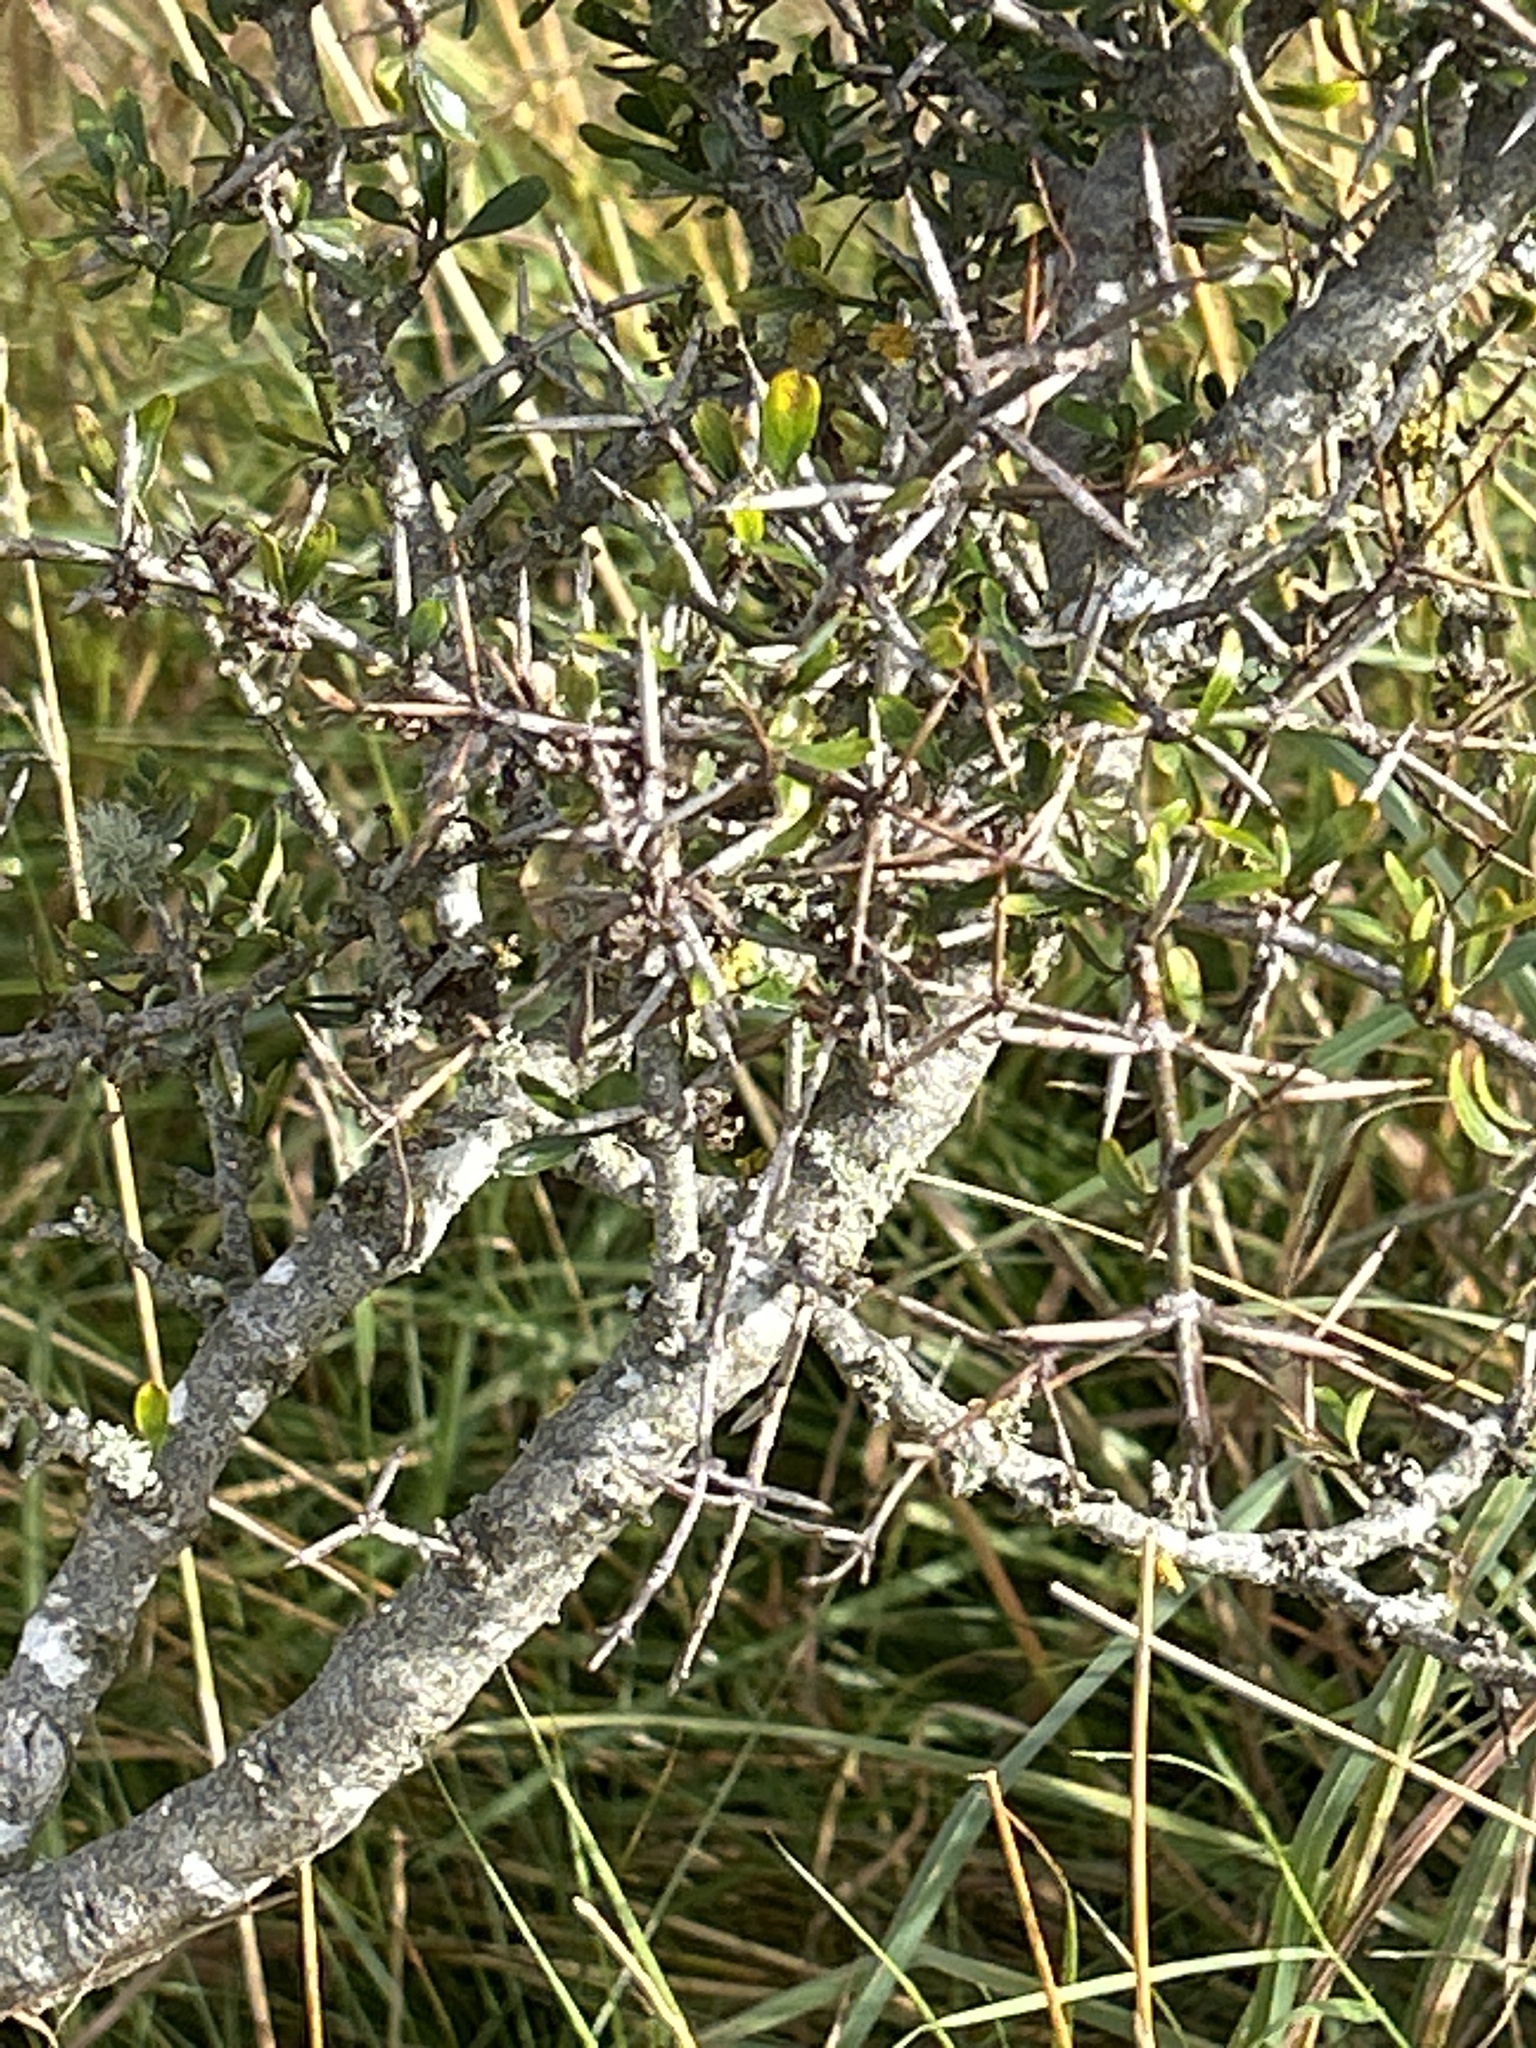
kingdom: Plantae
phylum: Tracheophyta
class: Magnoliopsida
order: Rosales
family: Rhamnaceae
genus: Discaria
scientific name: Discaria toumatou
